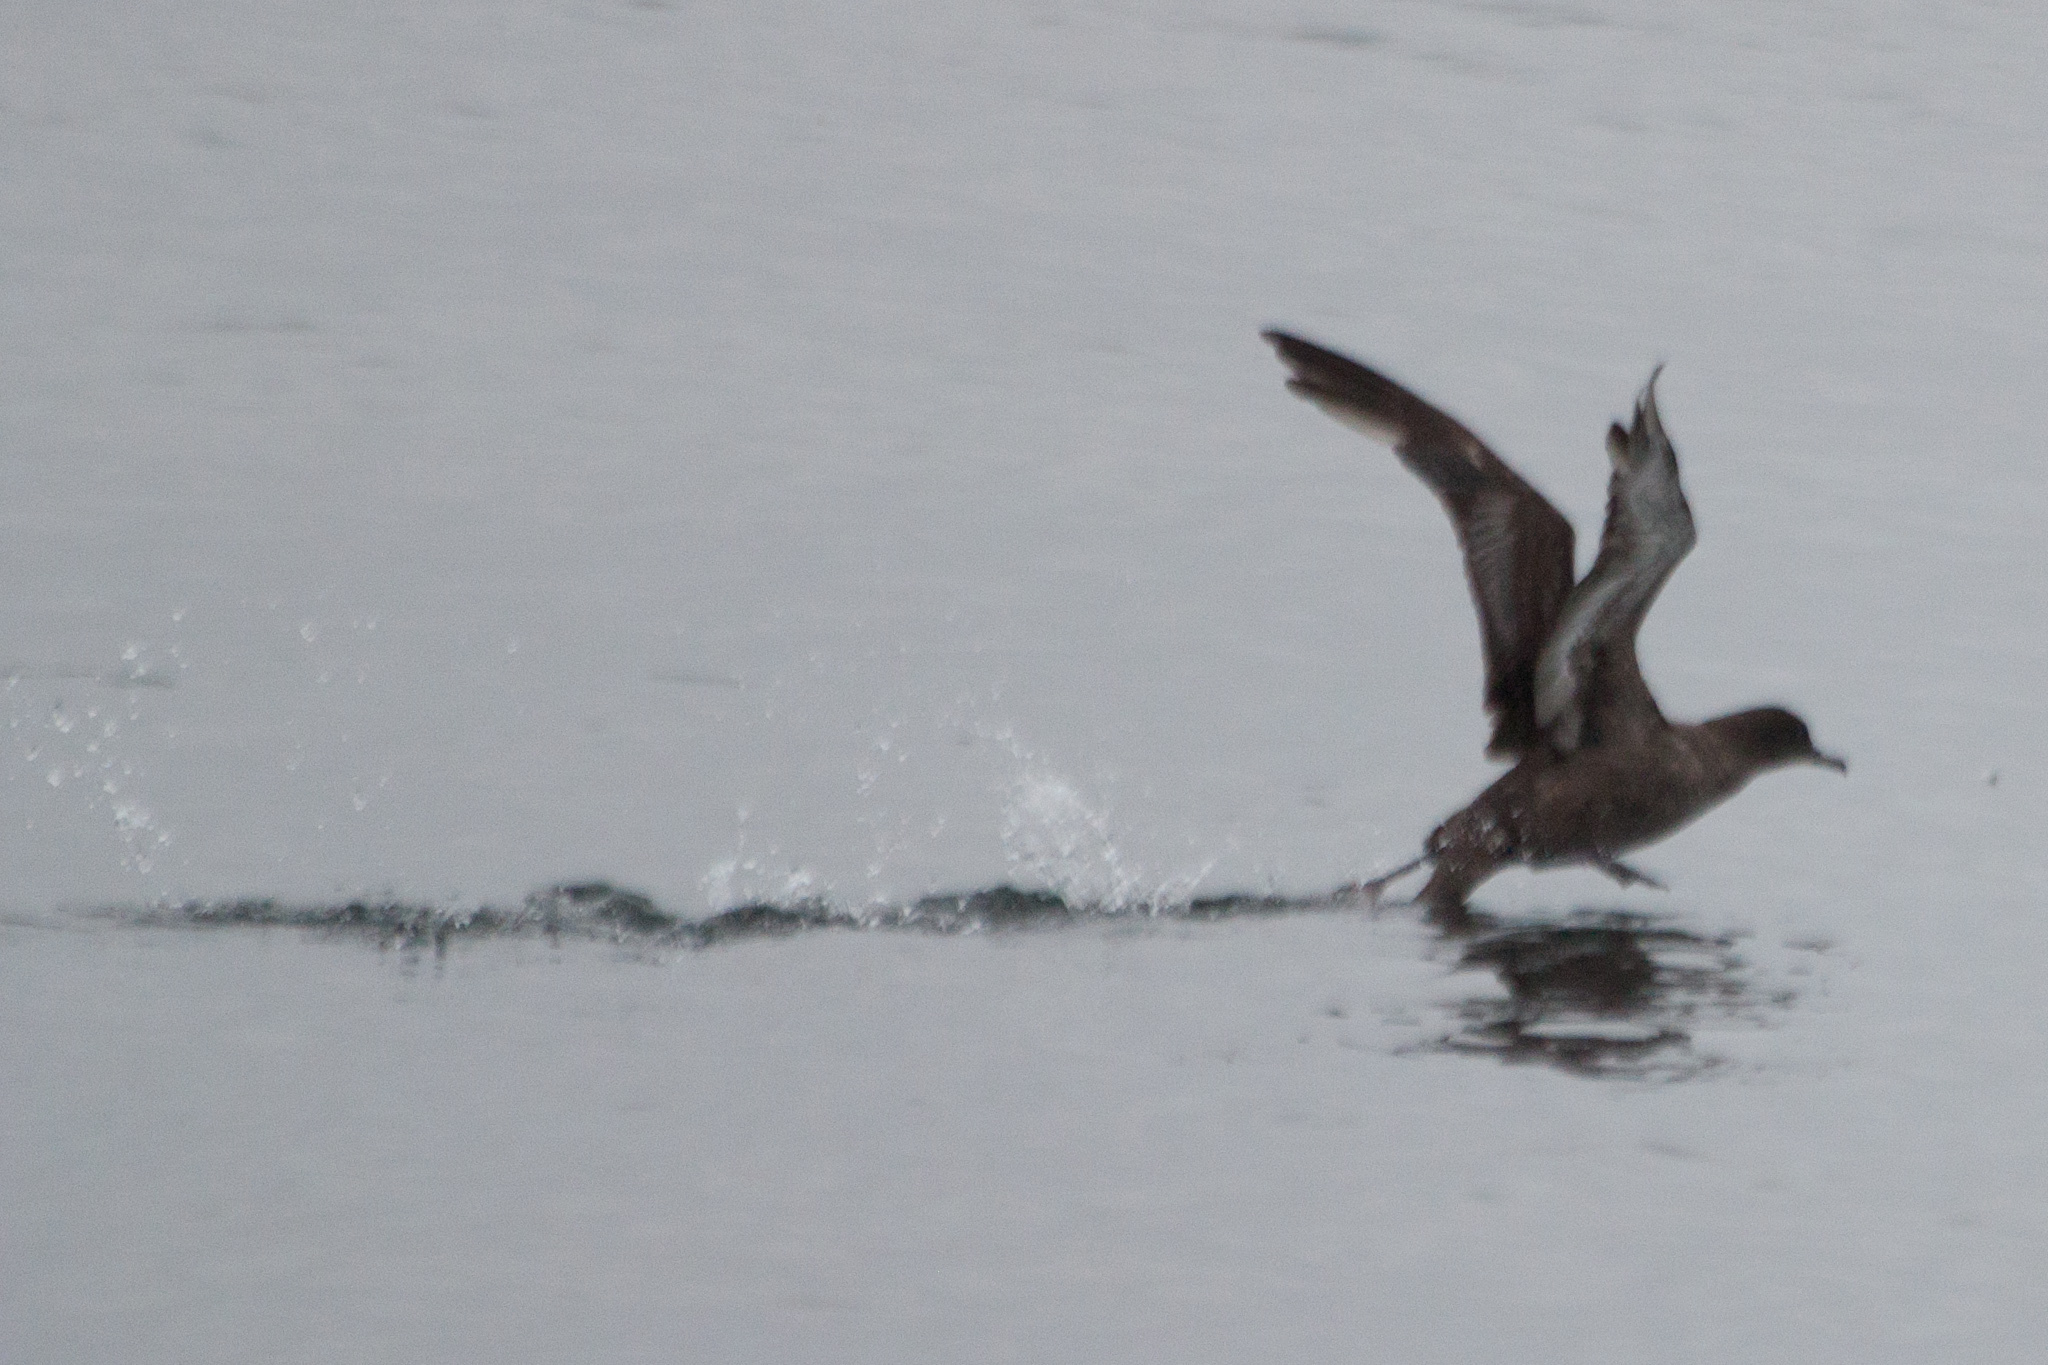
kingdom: Animalia
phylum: Chordata
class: Aves
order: Procellariiformes
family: Procellariidae
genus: Puffinus
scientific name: Puffinus griseus
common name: Sooty shearwater
